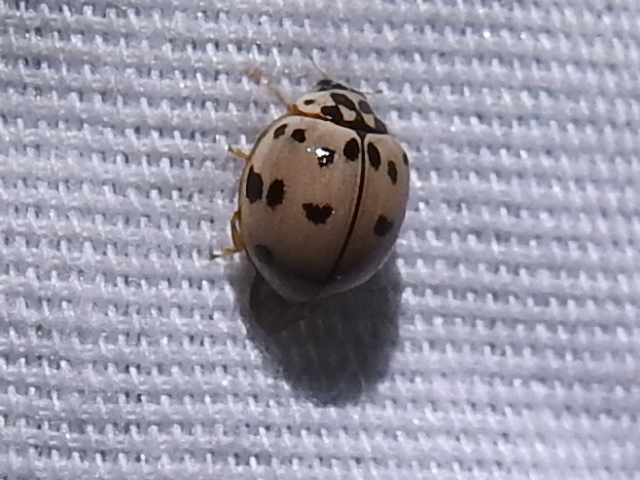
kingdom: Animalia
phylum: Arthropoda
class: Insecta
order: Coleoptera
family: Coccinellidae
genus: Olla
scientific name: Olla v-nigrum
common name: Ashy gray lady beetle
